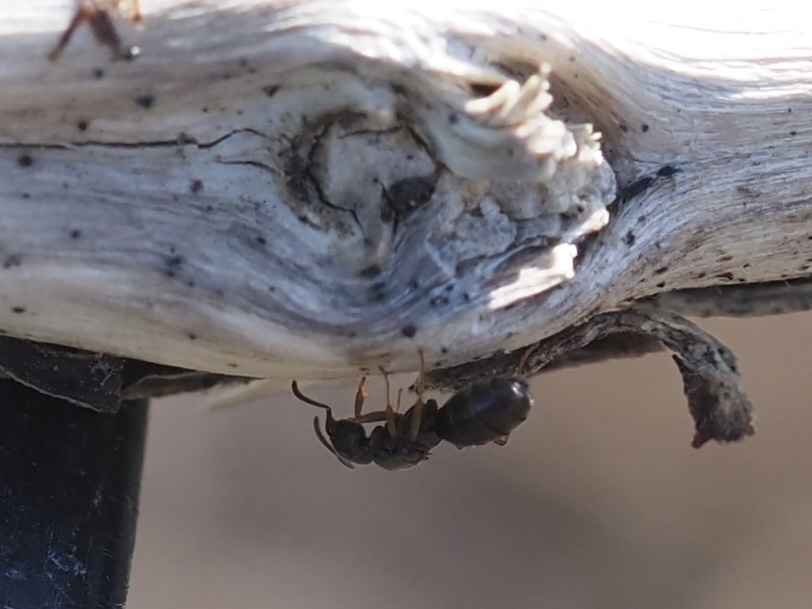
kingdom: Animalia
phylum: Arthropoda
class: Insecta
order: Hymenoptera
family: Formicidae
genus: Tapinoma
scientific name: Tapinoma sessile
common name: Odorous house ant
